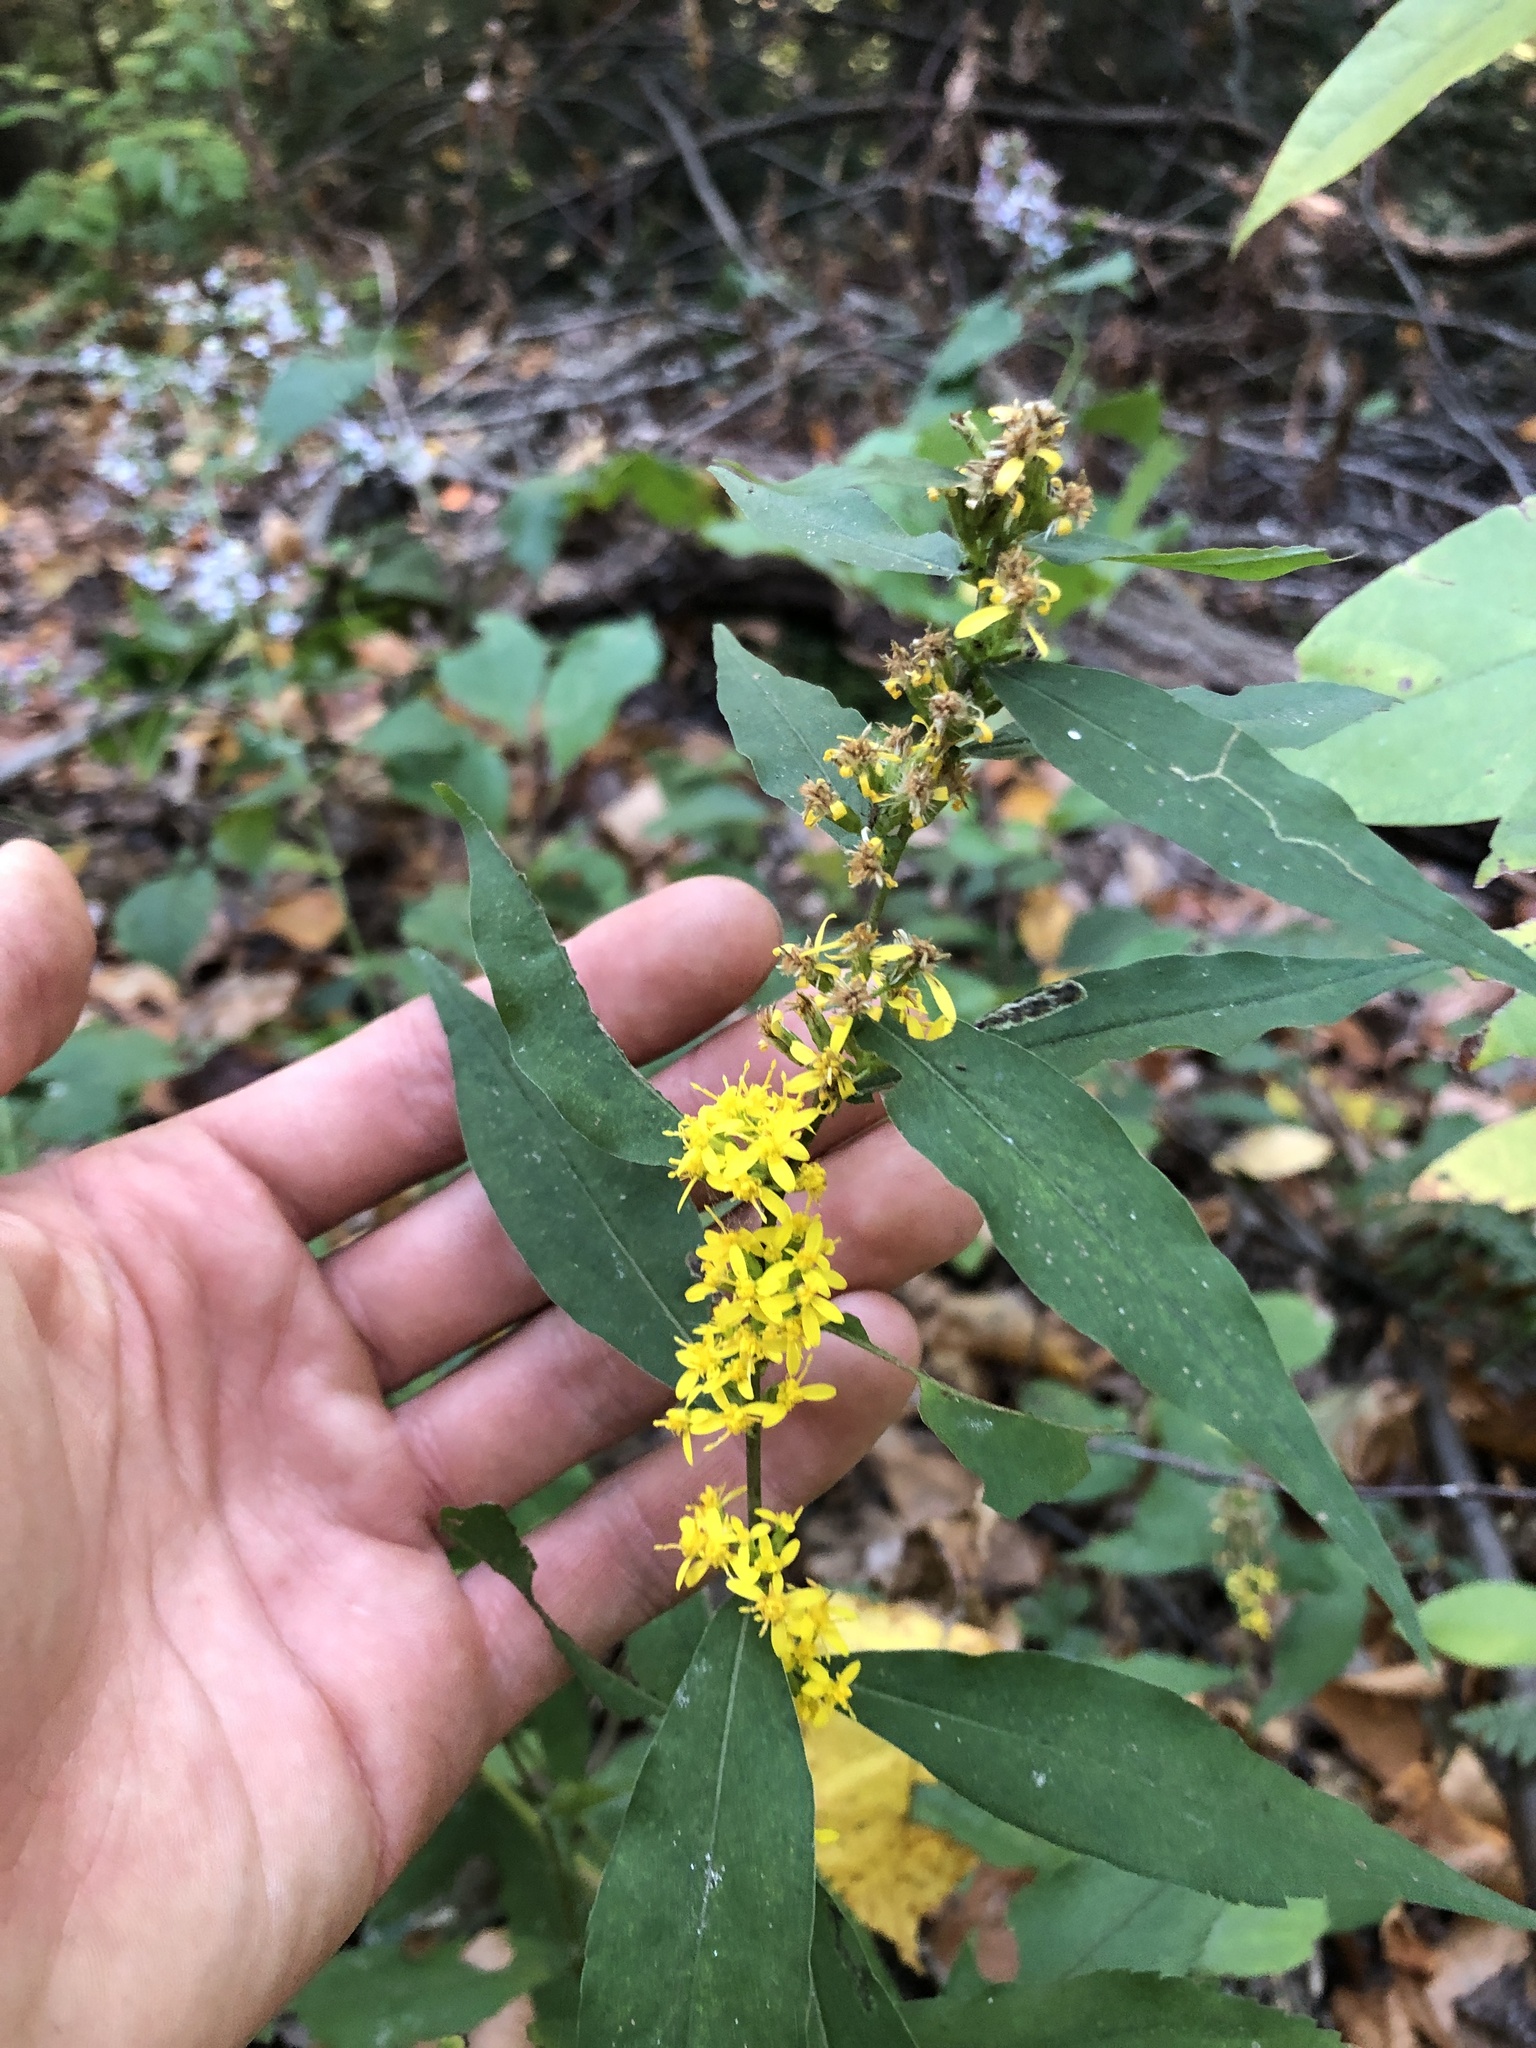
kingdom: Plantae
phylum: Tracheophyta
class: Magnoliopsida
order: Asterales
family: Asteraceae
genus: Solidago
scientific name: Solidago caesia
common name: Woodland goldenrod
